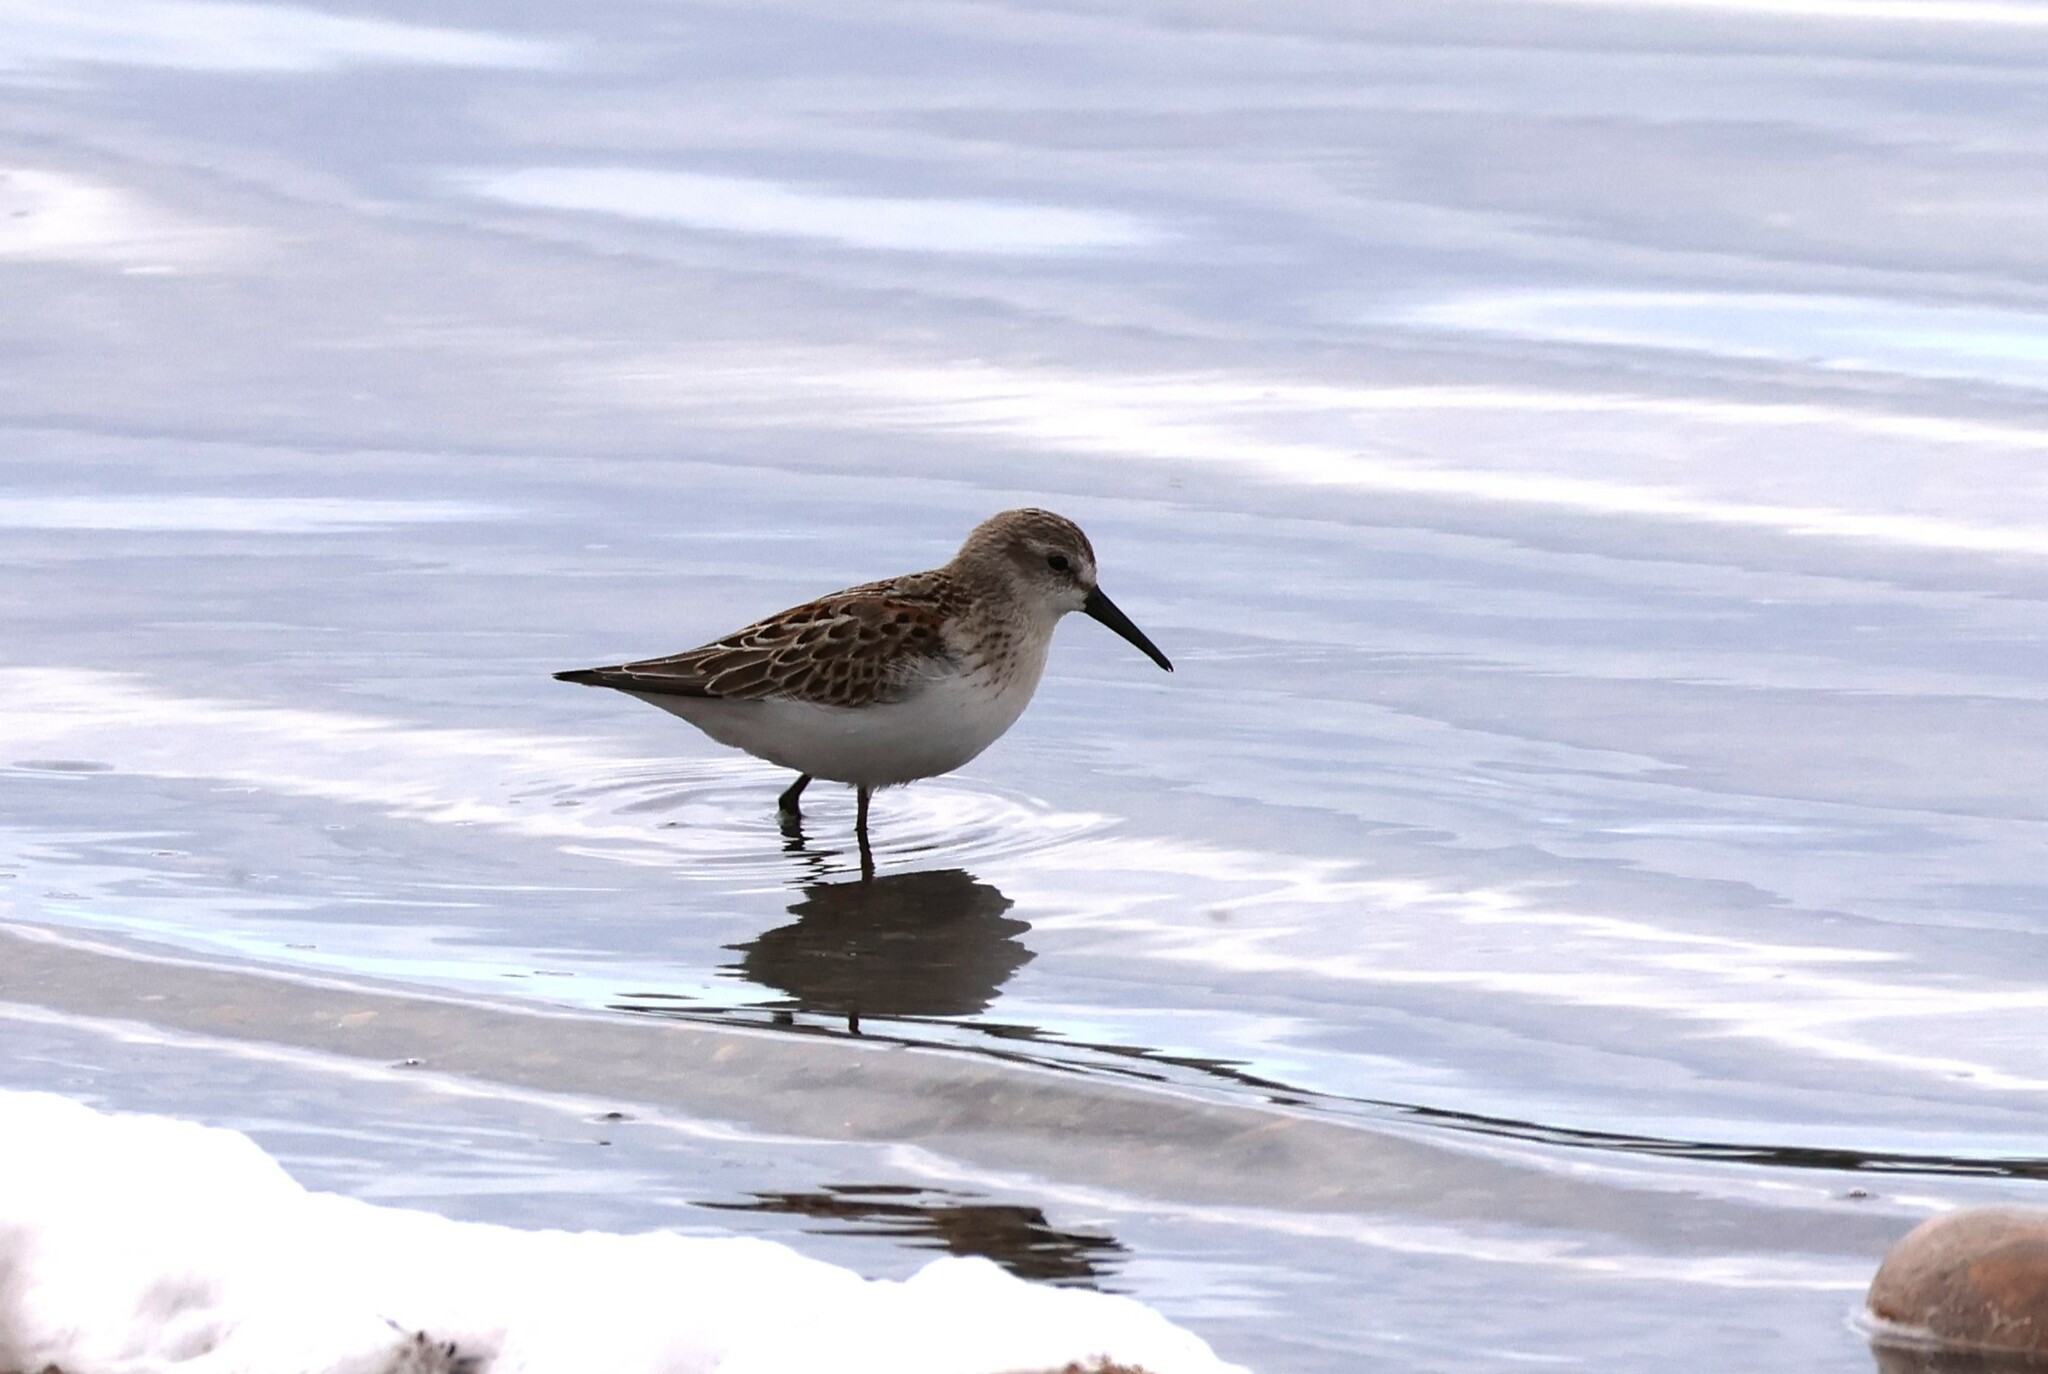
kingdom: Animalia
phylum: Chordata
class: Aves
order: Charadriiformes
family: Scolopacidae
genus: Calidris
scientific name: Calidris mauri
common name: Western sandpiper
